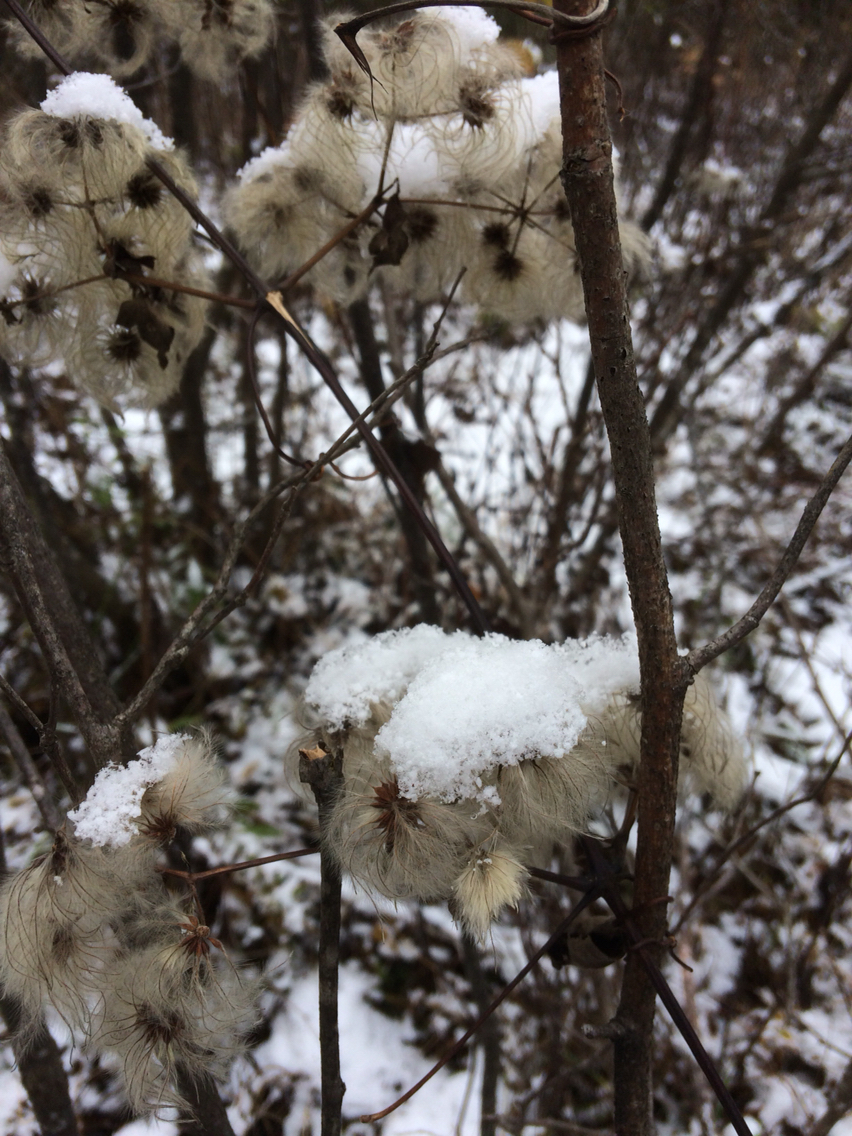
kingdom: Plantae
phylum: Tracheophyta
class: Magnoliopsida
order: Ranunculales
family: Ranunculaceae
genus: Clematis
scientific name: Clematis virginiana
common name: Virgin's-bower
